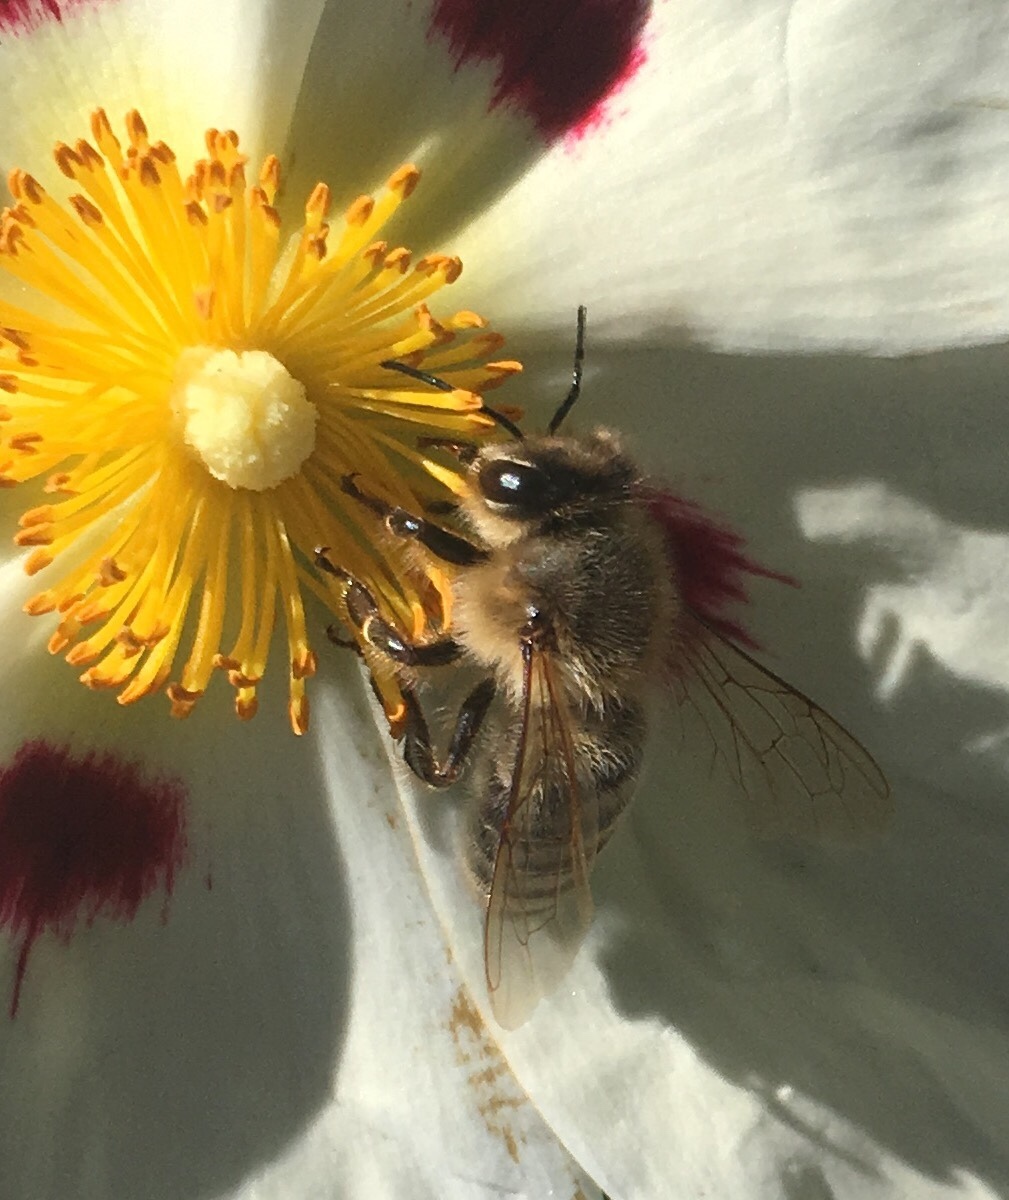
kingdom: Animalia
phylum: Arthropoda
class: Insecta
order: Hymenoptera
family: Apidae
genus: Apis
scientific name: Apis mellifera
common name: Honey bee
